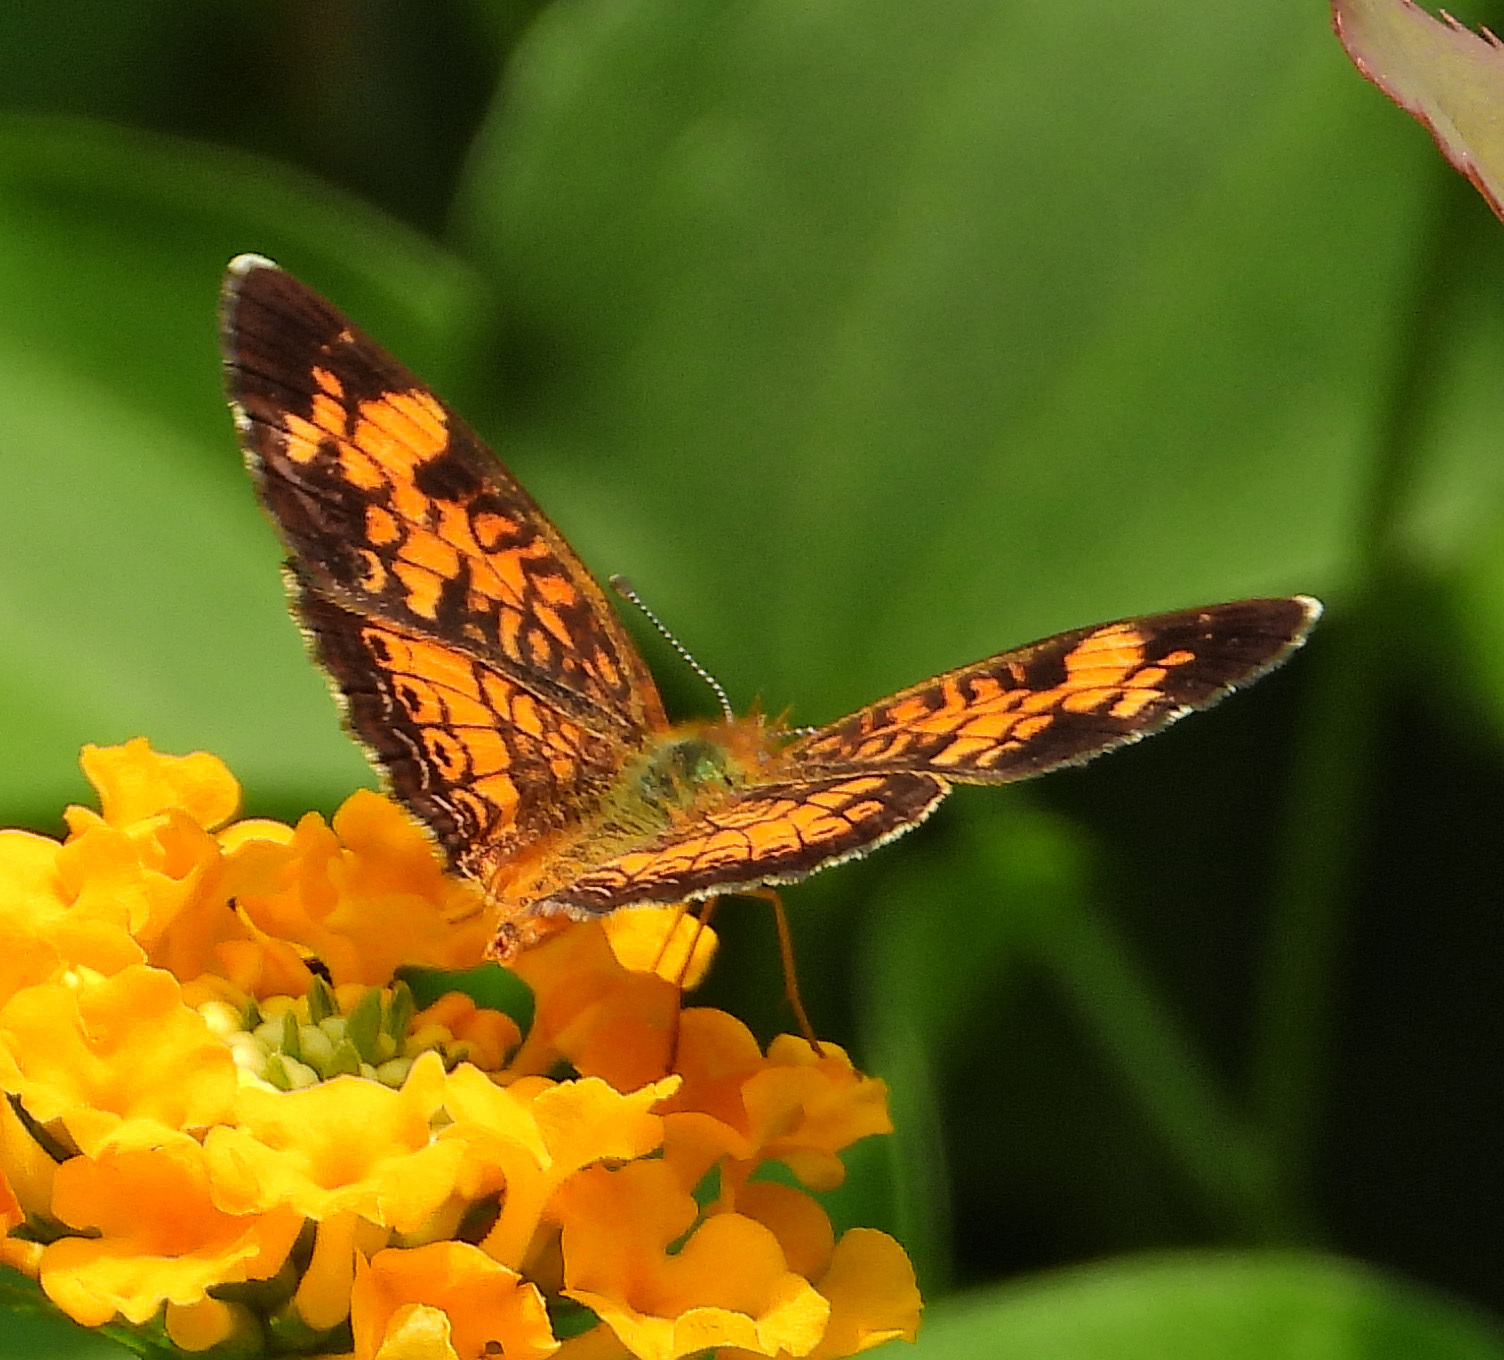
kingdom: Animalia
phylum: Arthropoda
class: Insecta
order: Lepidoptera
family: Nymphalidae
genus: Phyciodes
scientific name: Phyciodes tharos
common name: Pearl crescent
